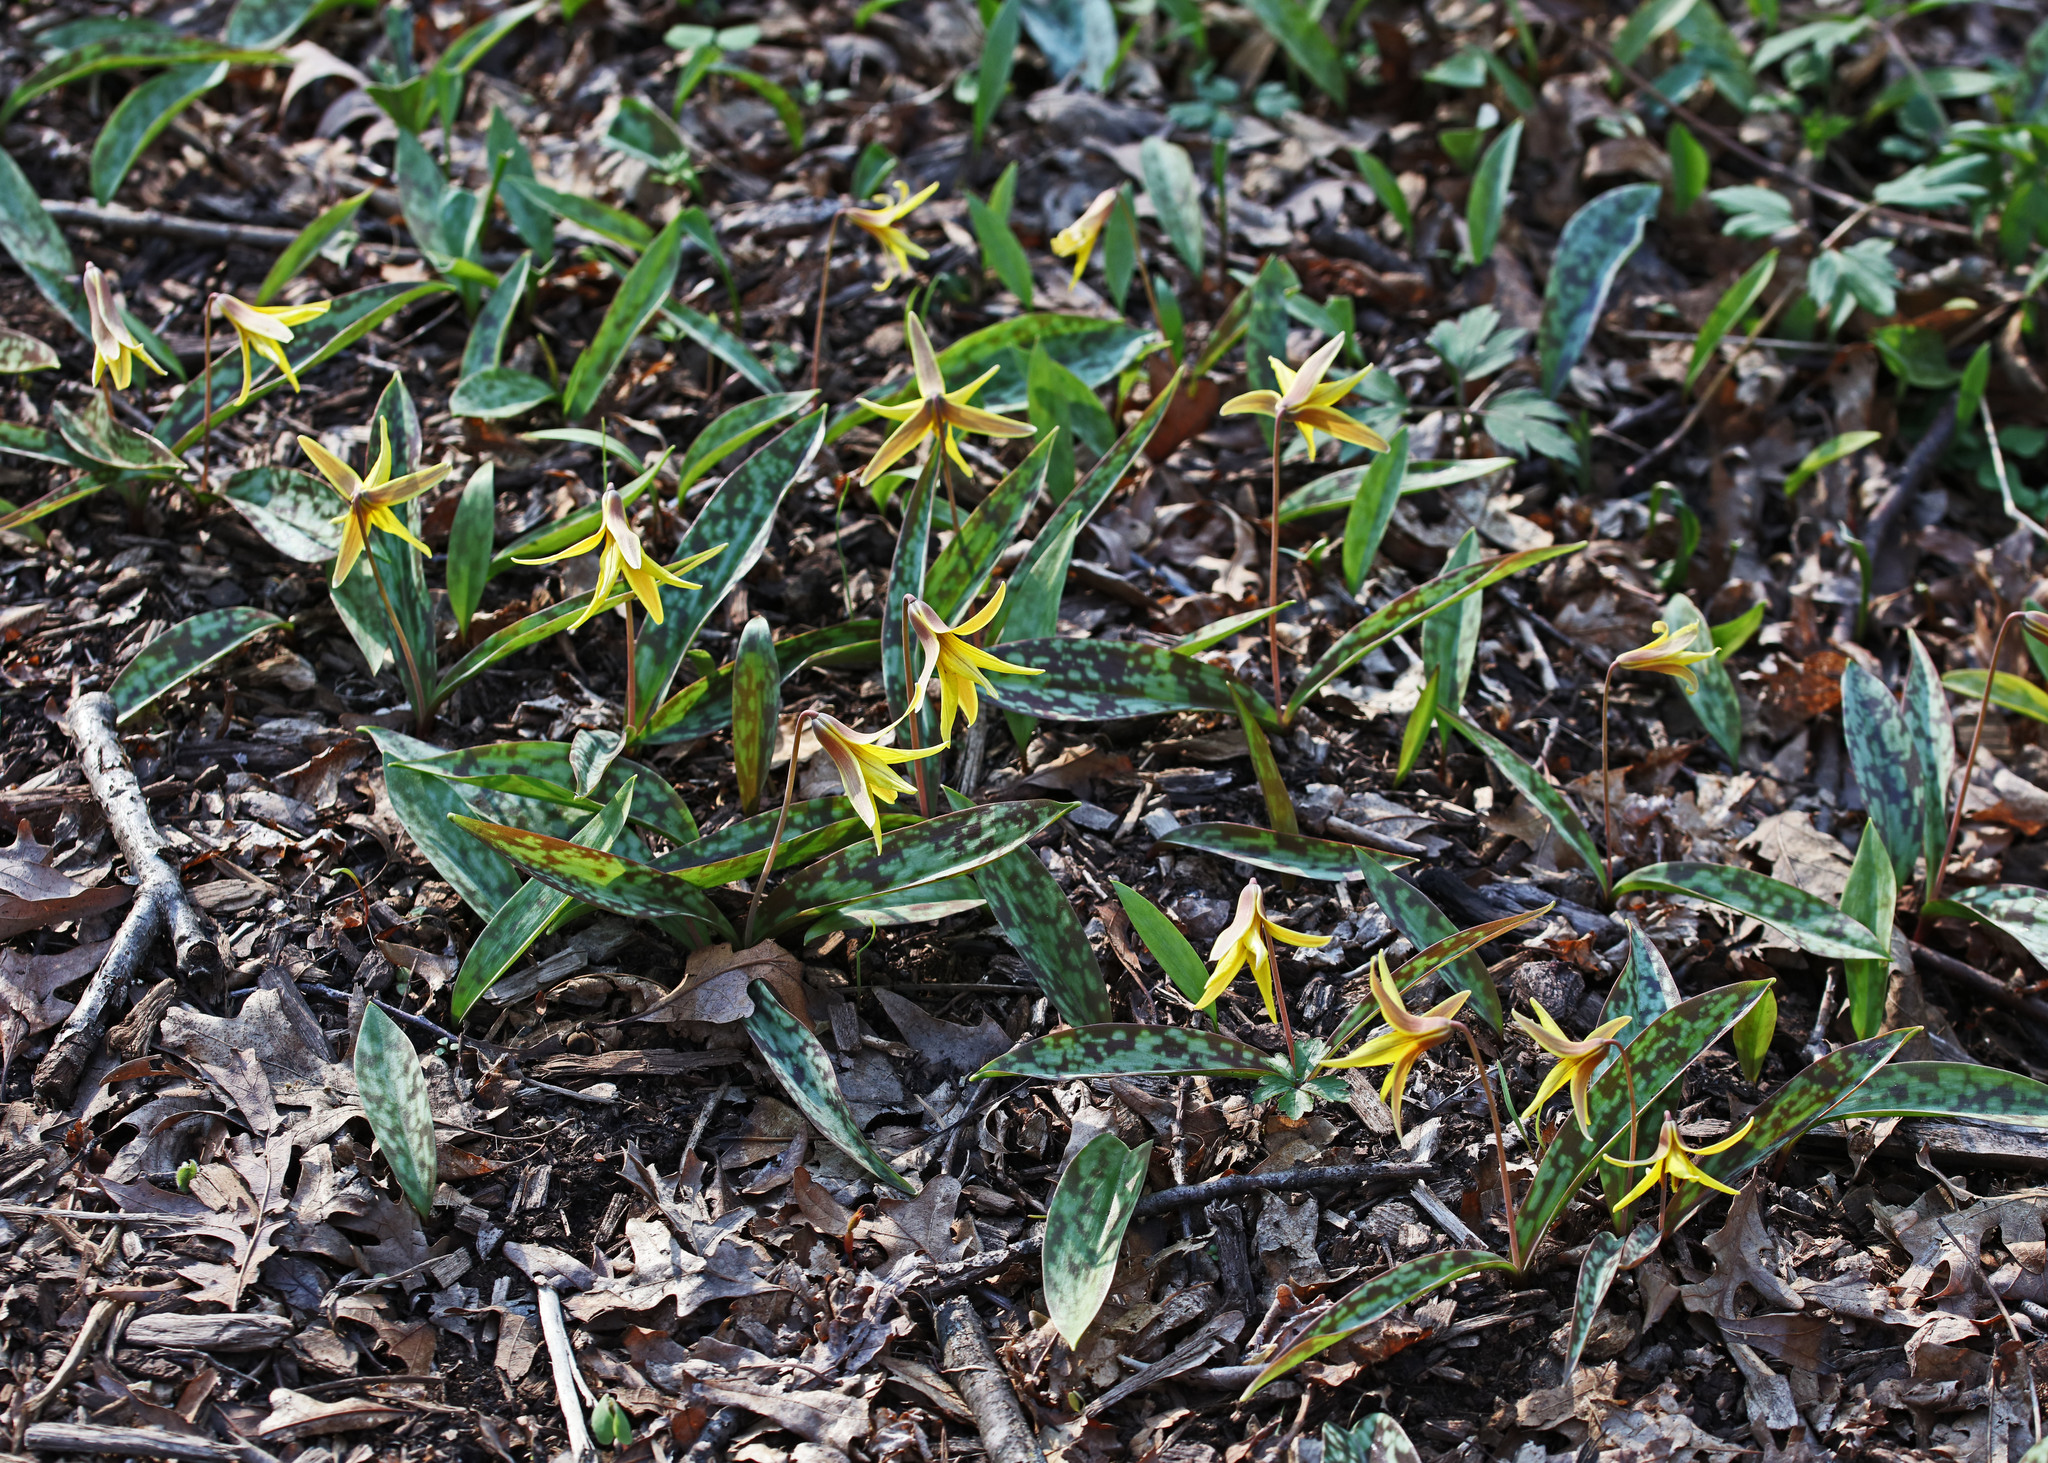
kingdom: Plantae
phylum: Tracheophyta
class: Liliopsida
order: Liliales
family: Liliaceae
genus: Erythronium
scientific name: Erythronium americanum
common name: Yellow adder's-tongue
